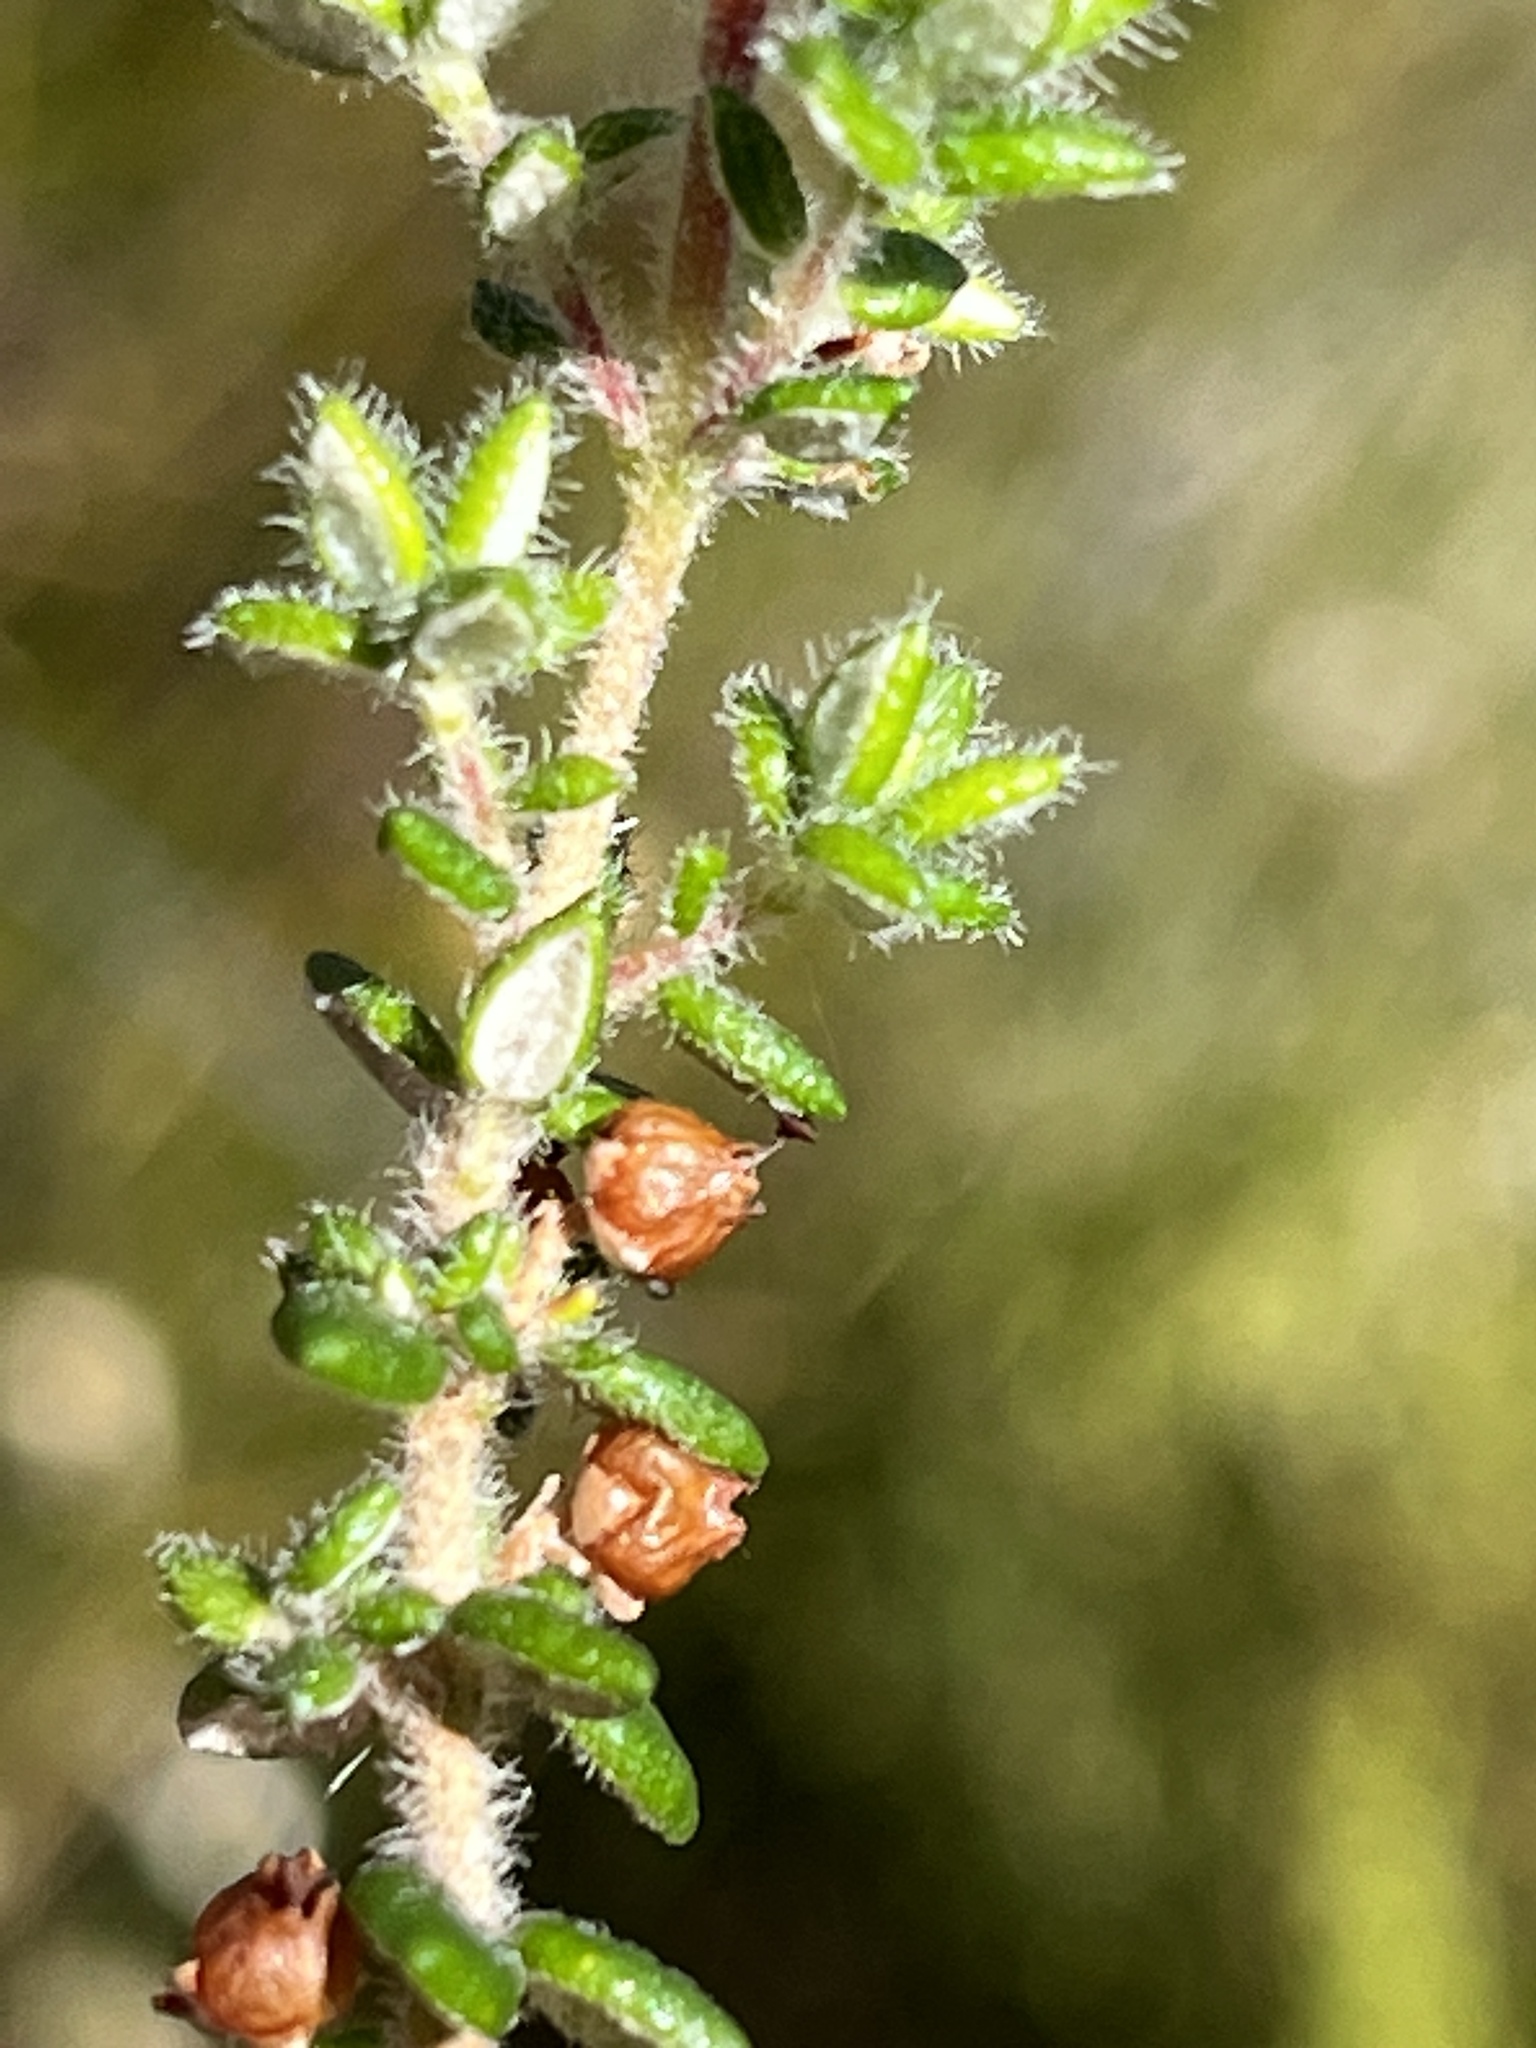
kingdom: Plantae
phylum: Tracheophyta
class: Magnoliopsida
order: Ericales
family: Ericaceae
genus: Erica
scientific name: Erica cordata
